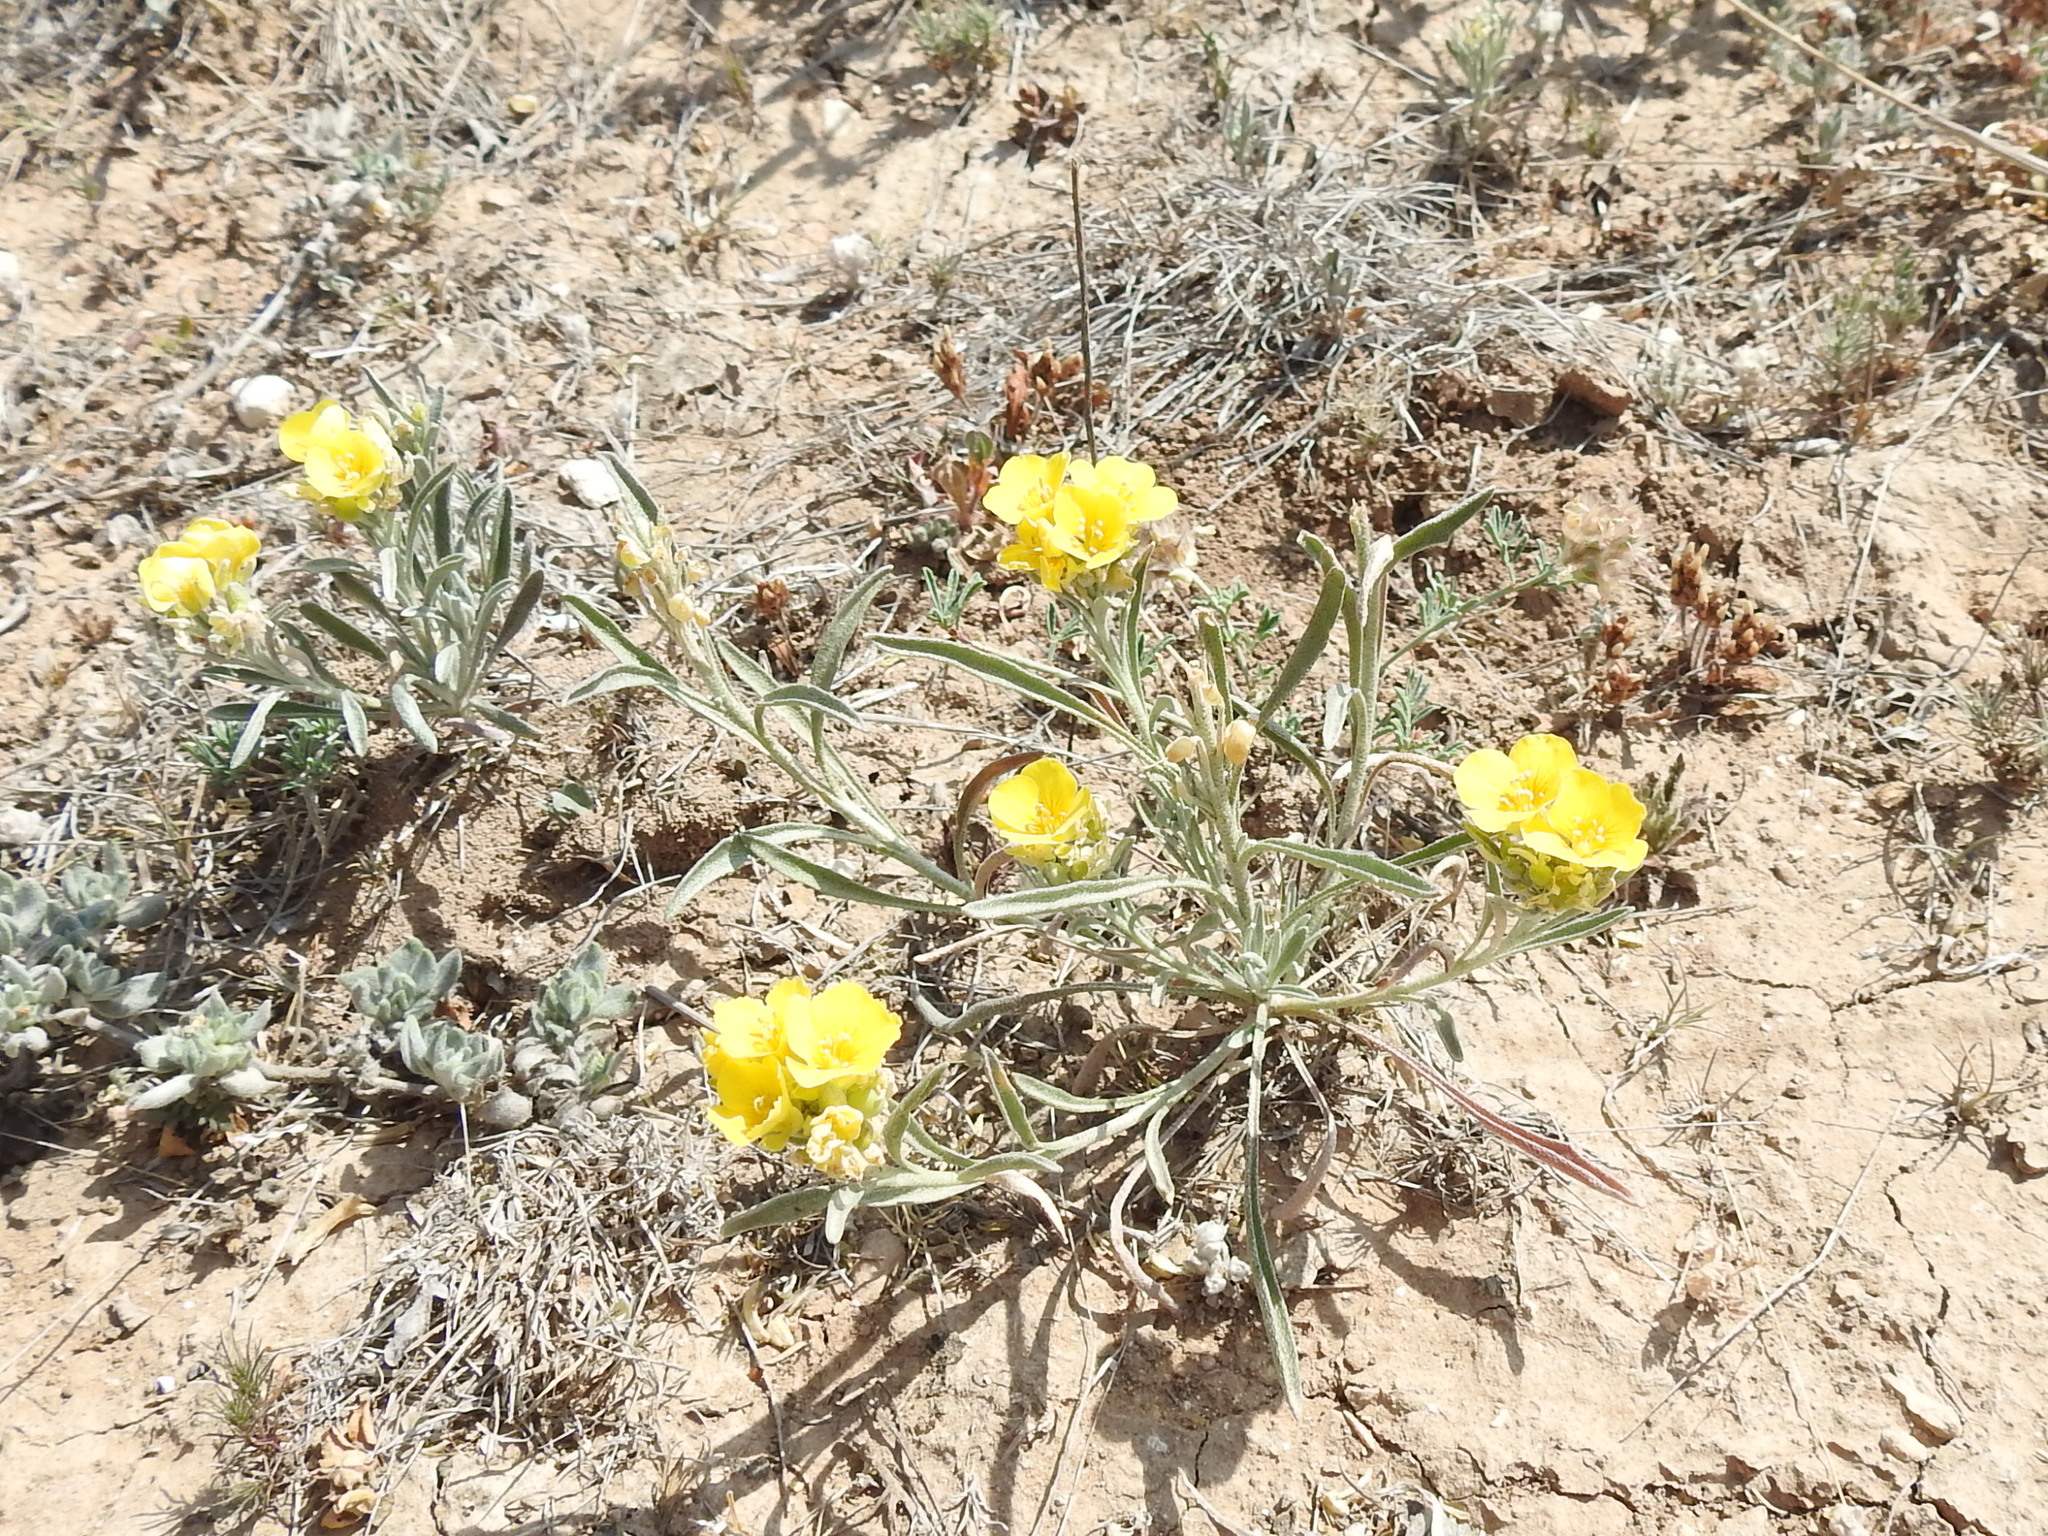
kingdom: Plantae
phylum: Tracheophyta
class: Magnoliopsida
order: Brassicales
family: Brassicaceae
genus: Physaria
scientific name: Physaria fendleri
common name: Fendler's bladderpod
